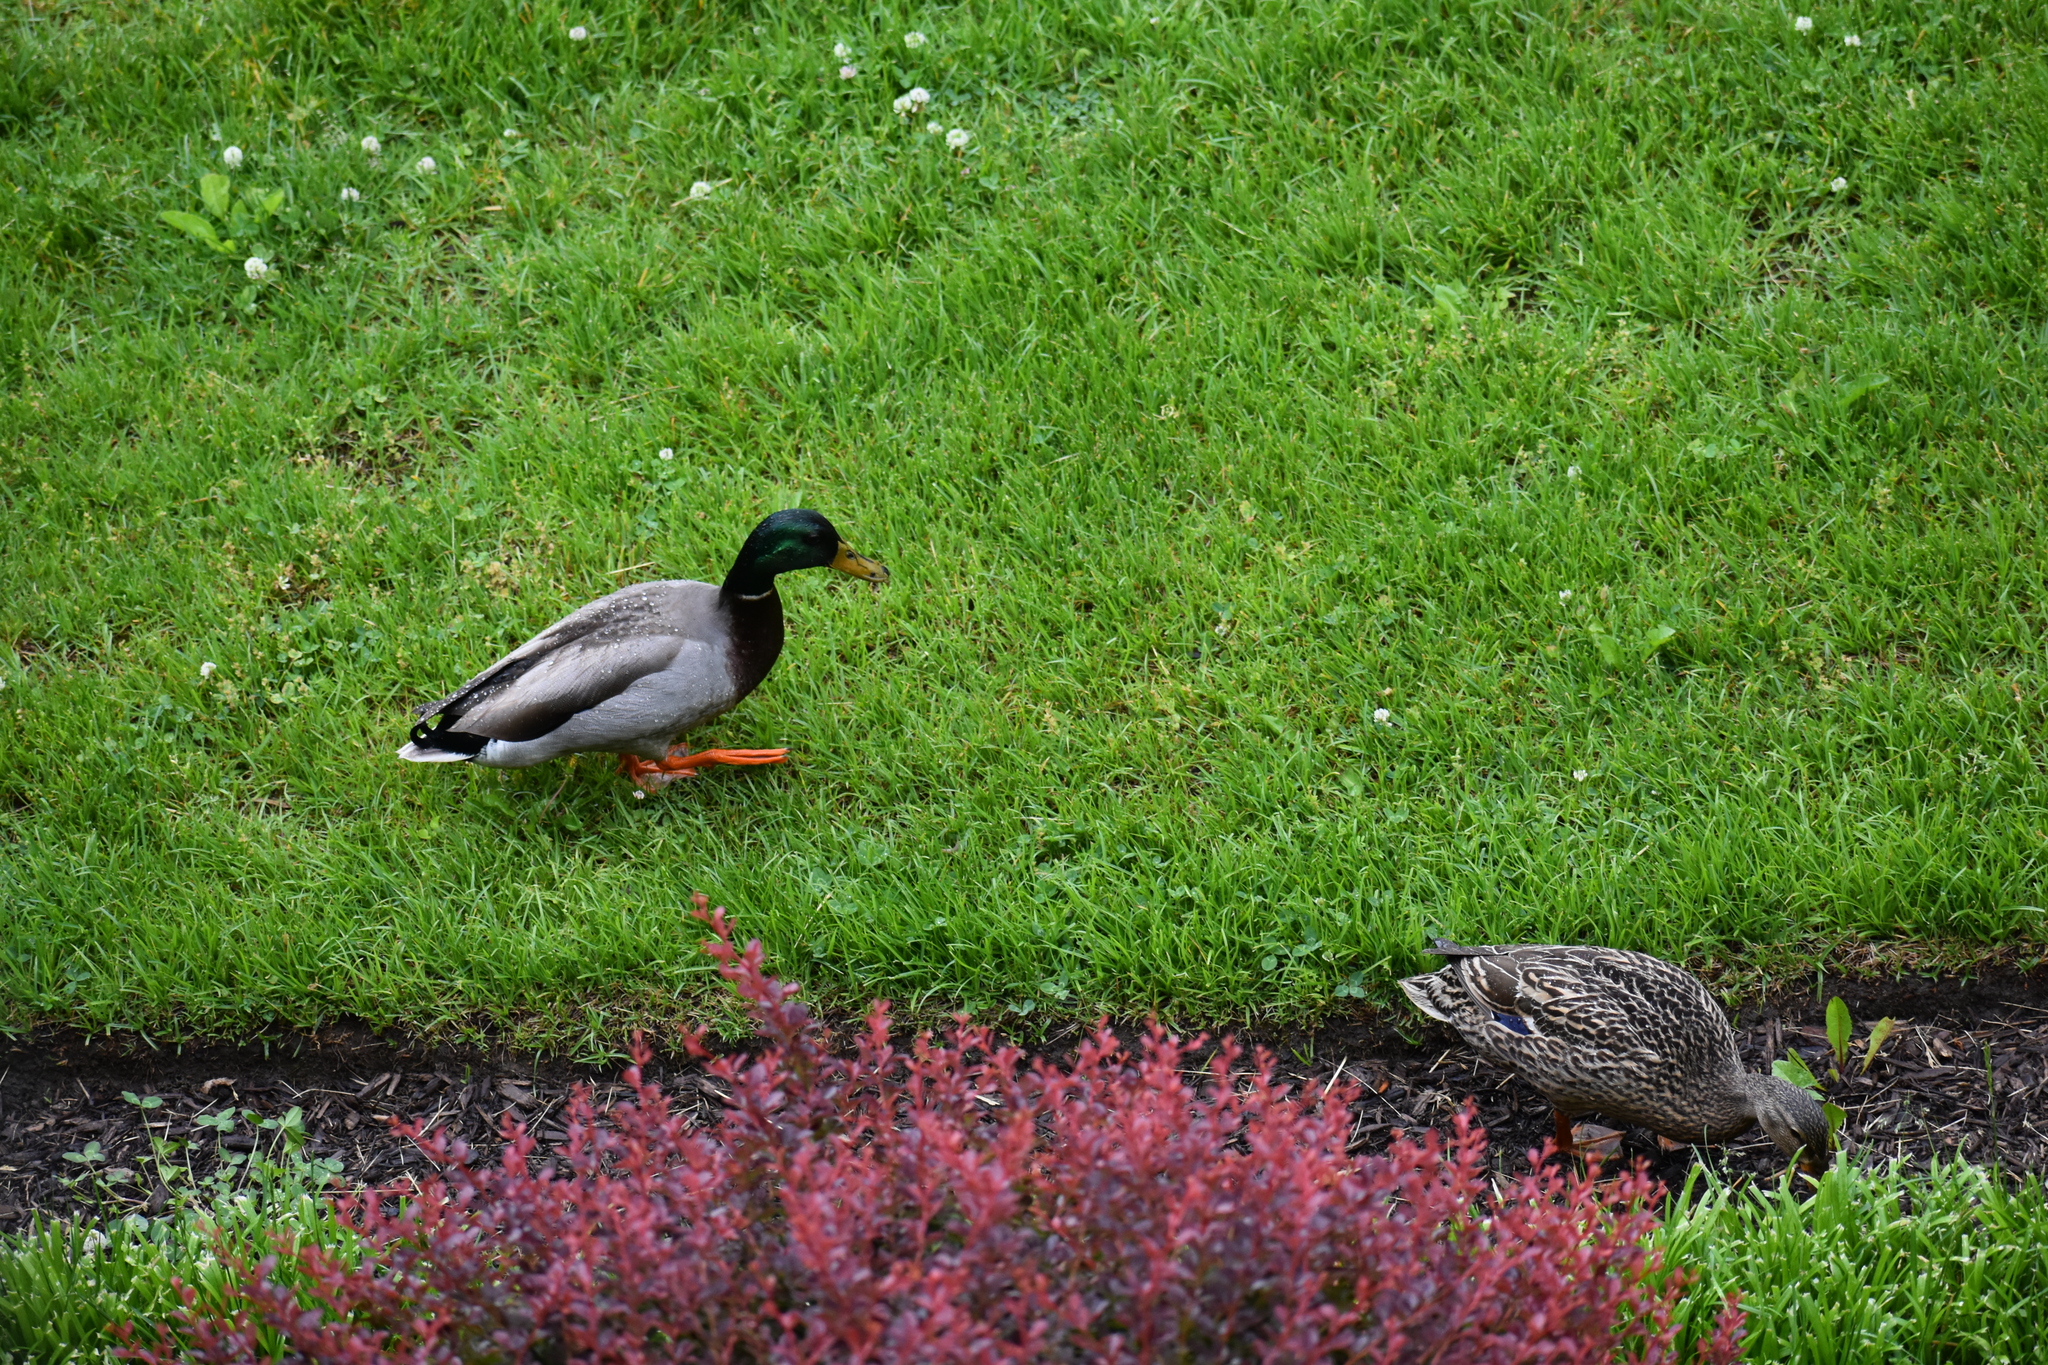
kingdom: Animalia
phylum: Chordata
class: Aves
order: Anseriformes
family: Anatidae
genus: Anas
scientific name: Anas platyrhynchos
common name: Mallard
